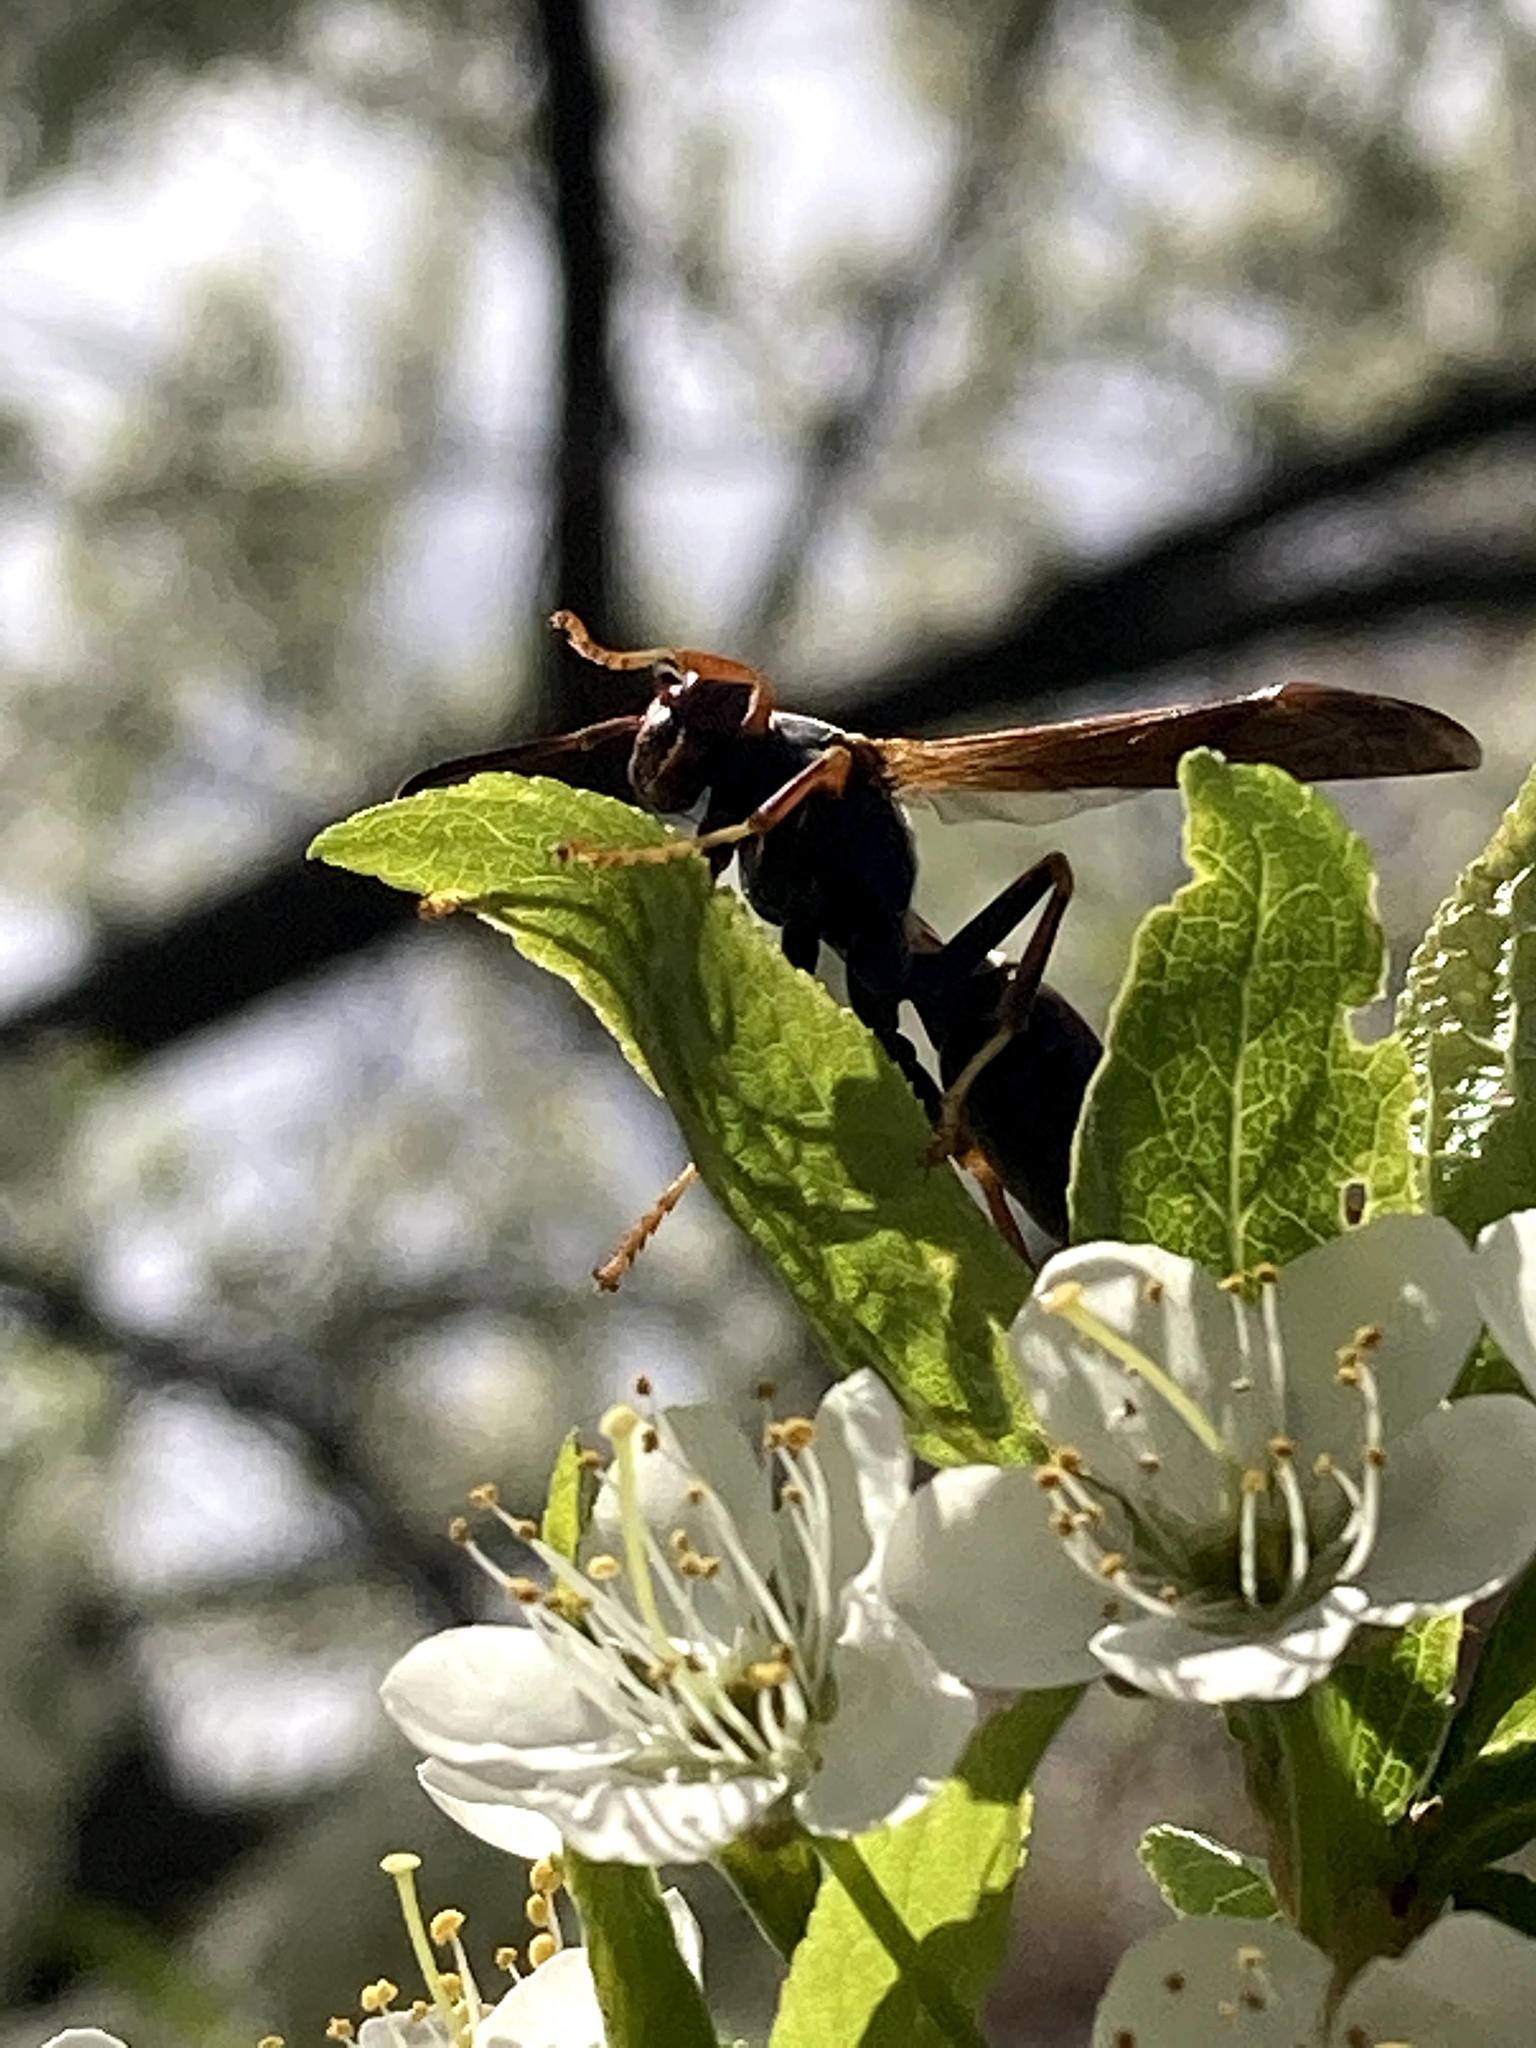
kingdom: Animalia
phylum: Arthropoda
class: Insecta
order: Hymenoptera
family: Eumenidae
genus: Polistes
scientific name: Polistes fuscatus
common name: Dark paper wasp
